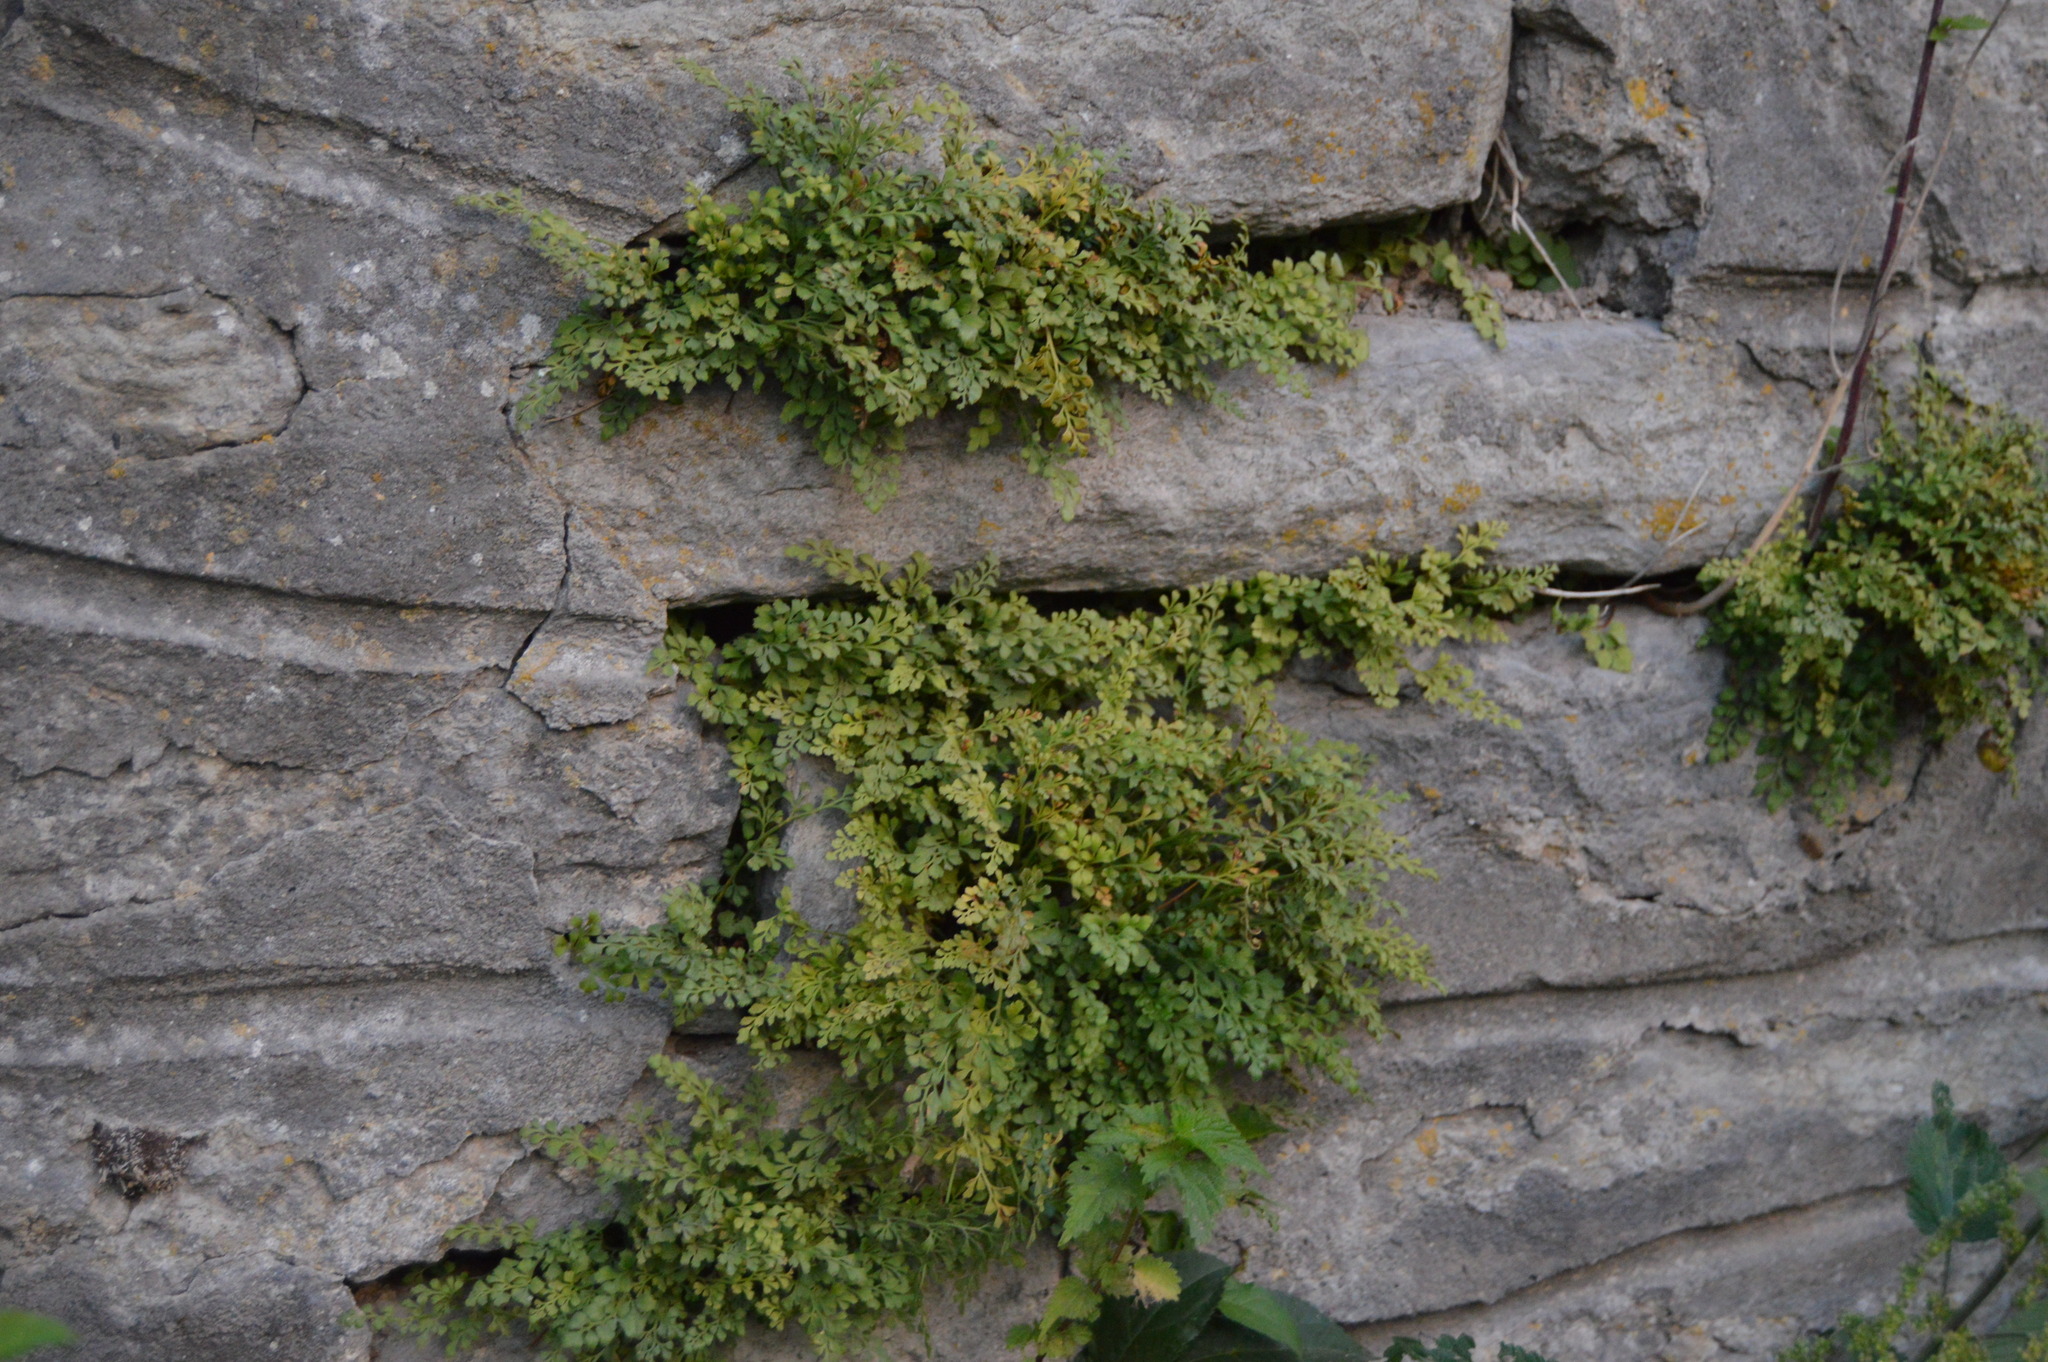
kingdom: Plantae
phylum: Tracheophyta
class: Polypodiopsida
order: Polypodiales
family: Aspleniaceae
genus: Asplenium
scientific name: Asplenium ruta-muraria
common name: Wall-rue
